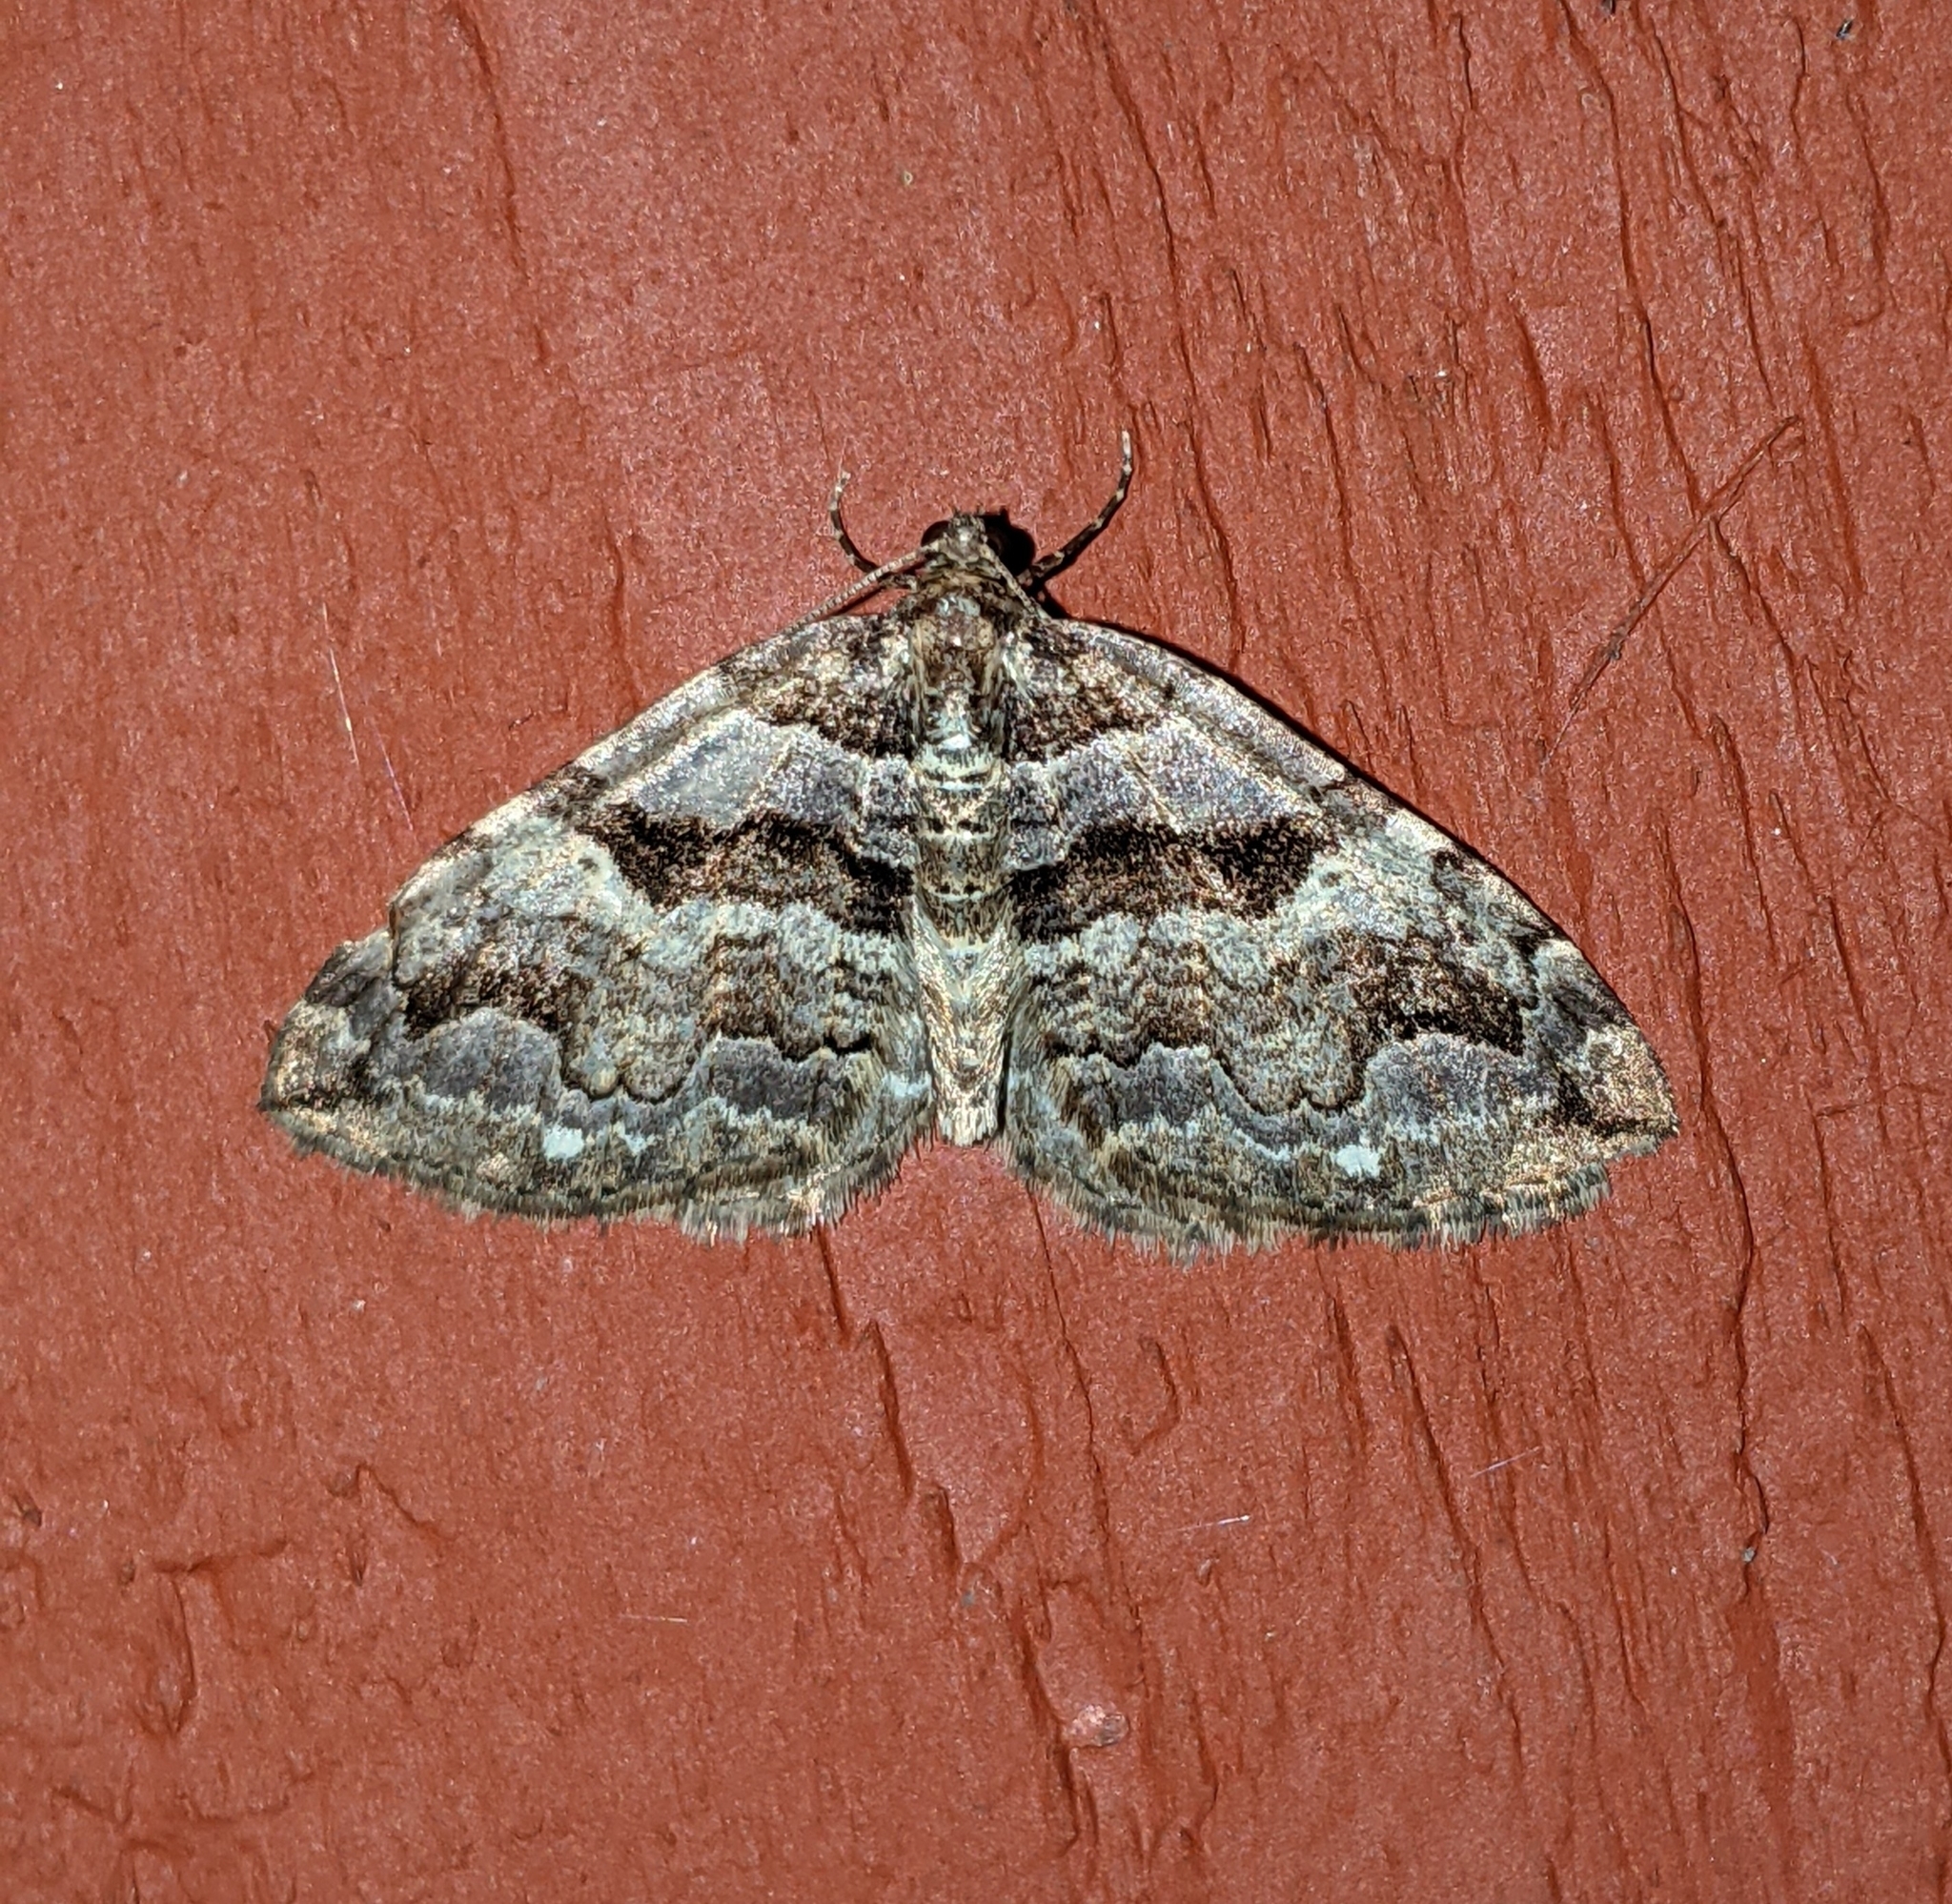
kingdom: Animalia
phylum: Arthropoda
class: Insecta
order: Lepidoptera
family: Geometridae
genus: Anticlea
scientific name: Anticlea vasiliata
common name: Variable carpet
